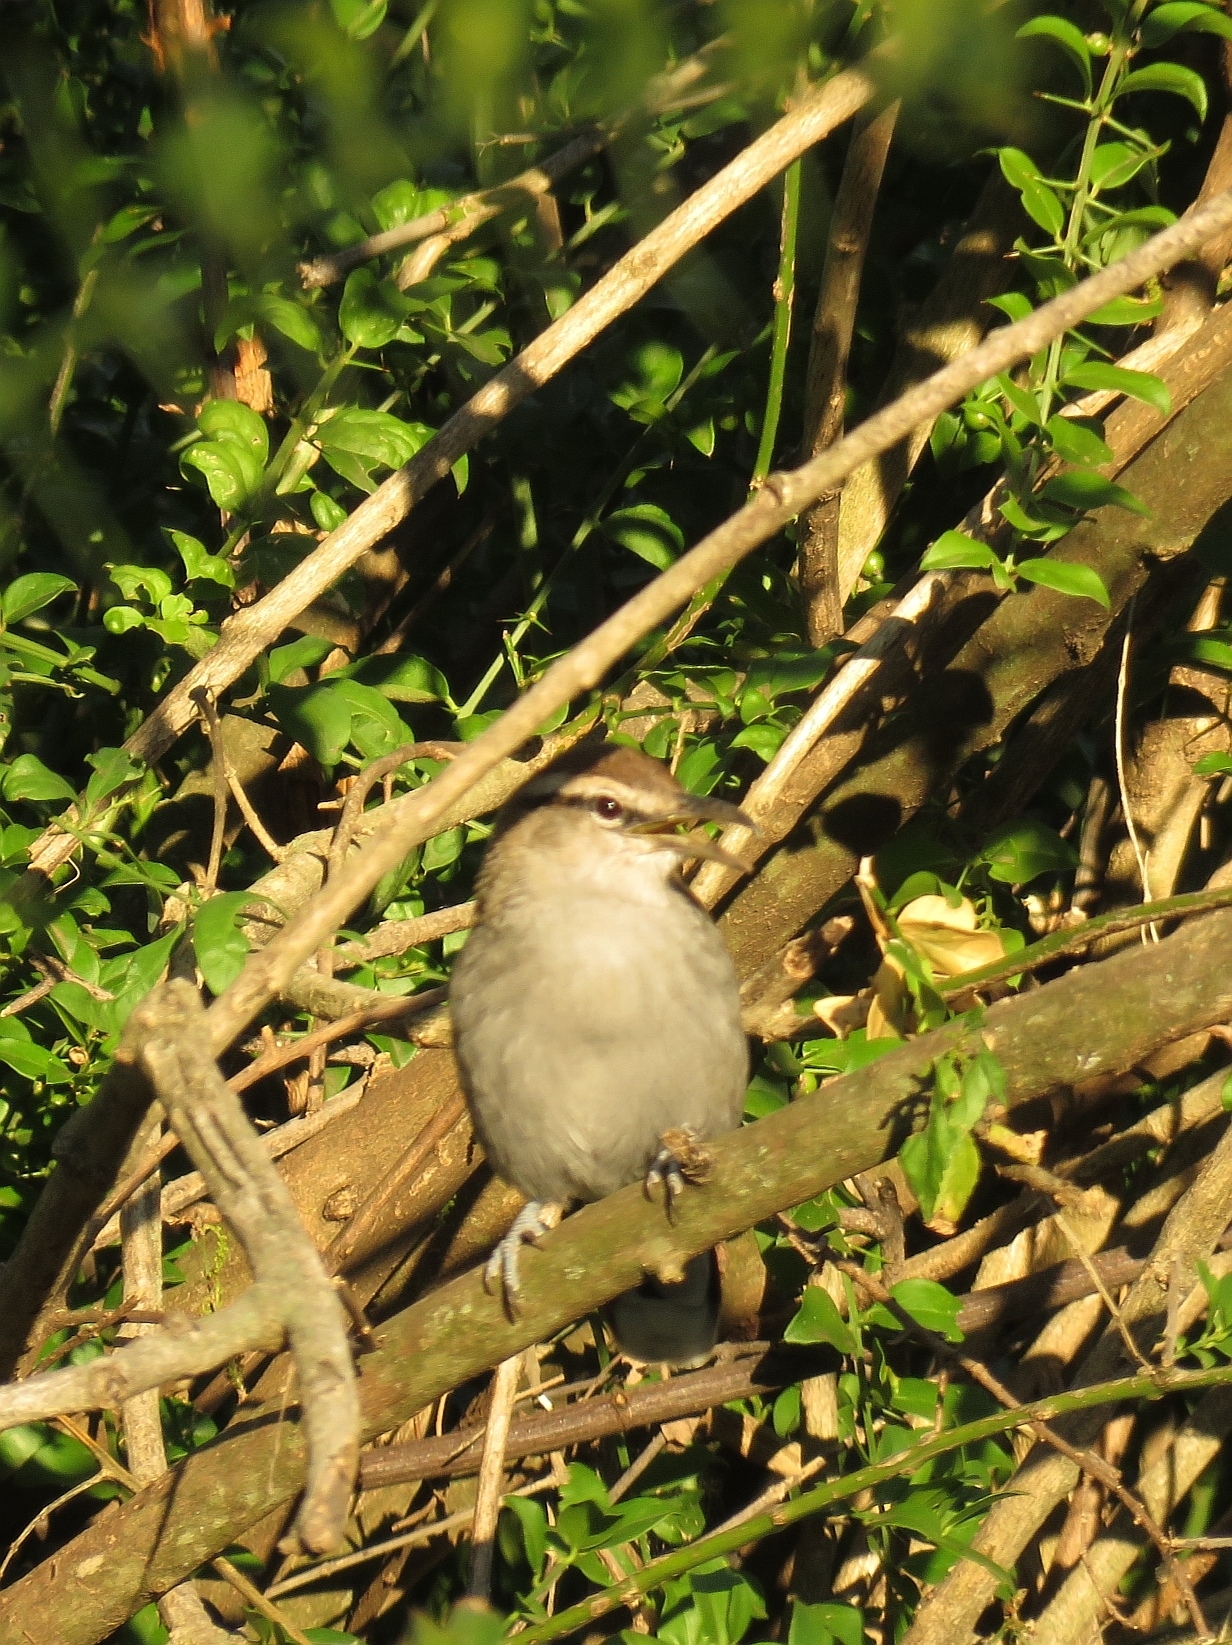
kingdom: Animalia
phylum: Chordata
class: Aves
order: Passeriformes
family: Malaconotidae
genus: Tchagra
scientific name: Tchagra tchagra
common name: Southern tchagra
